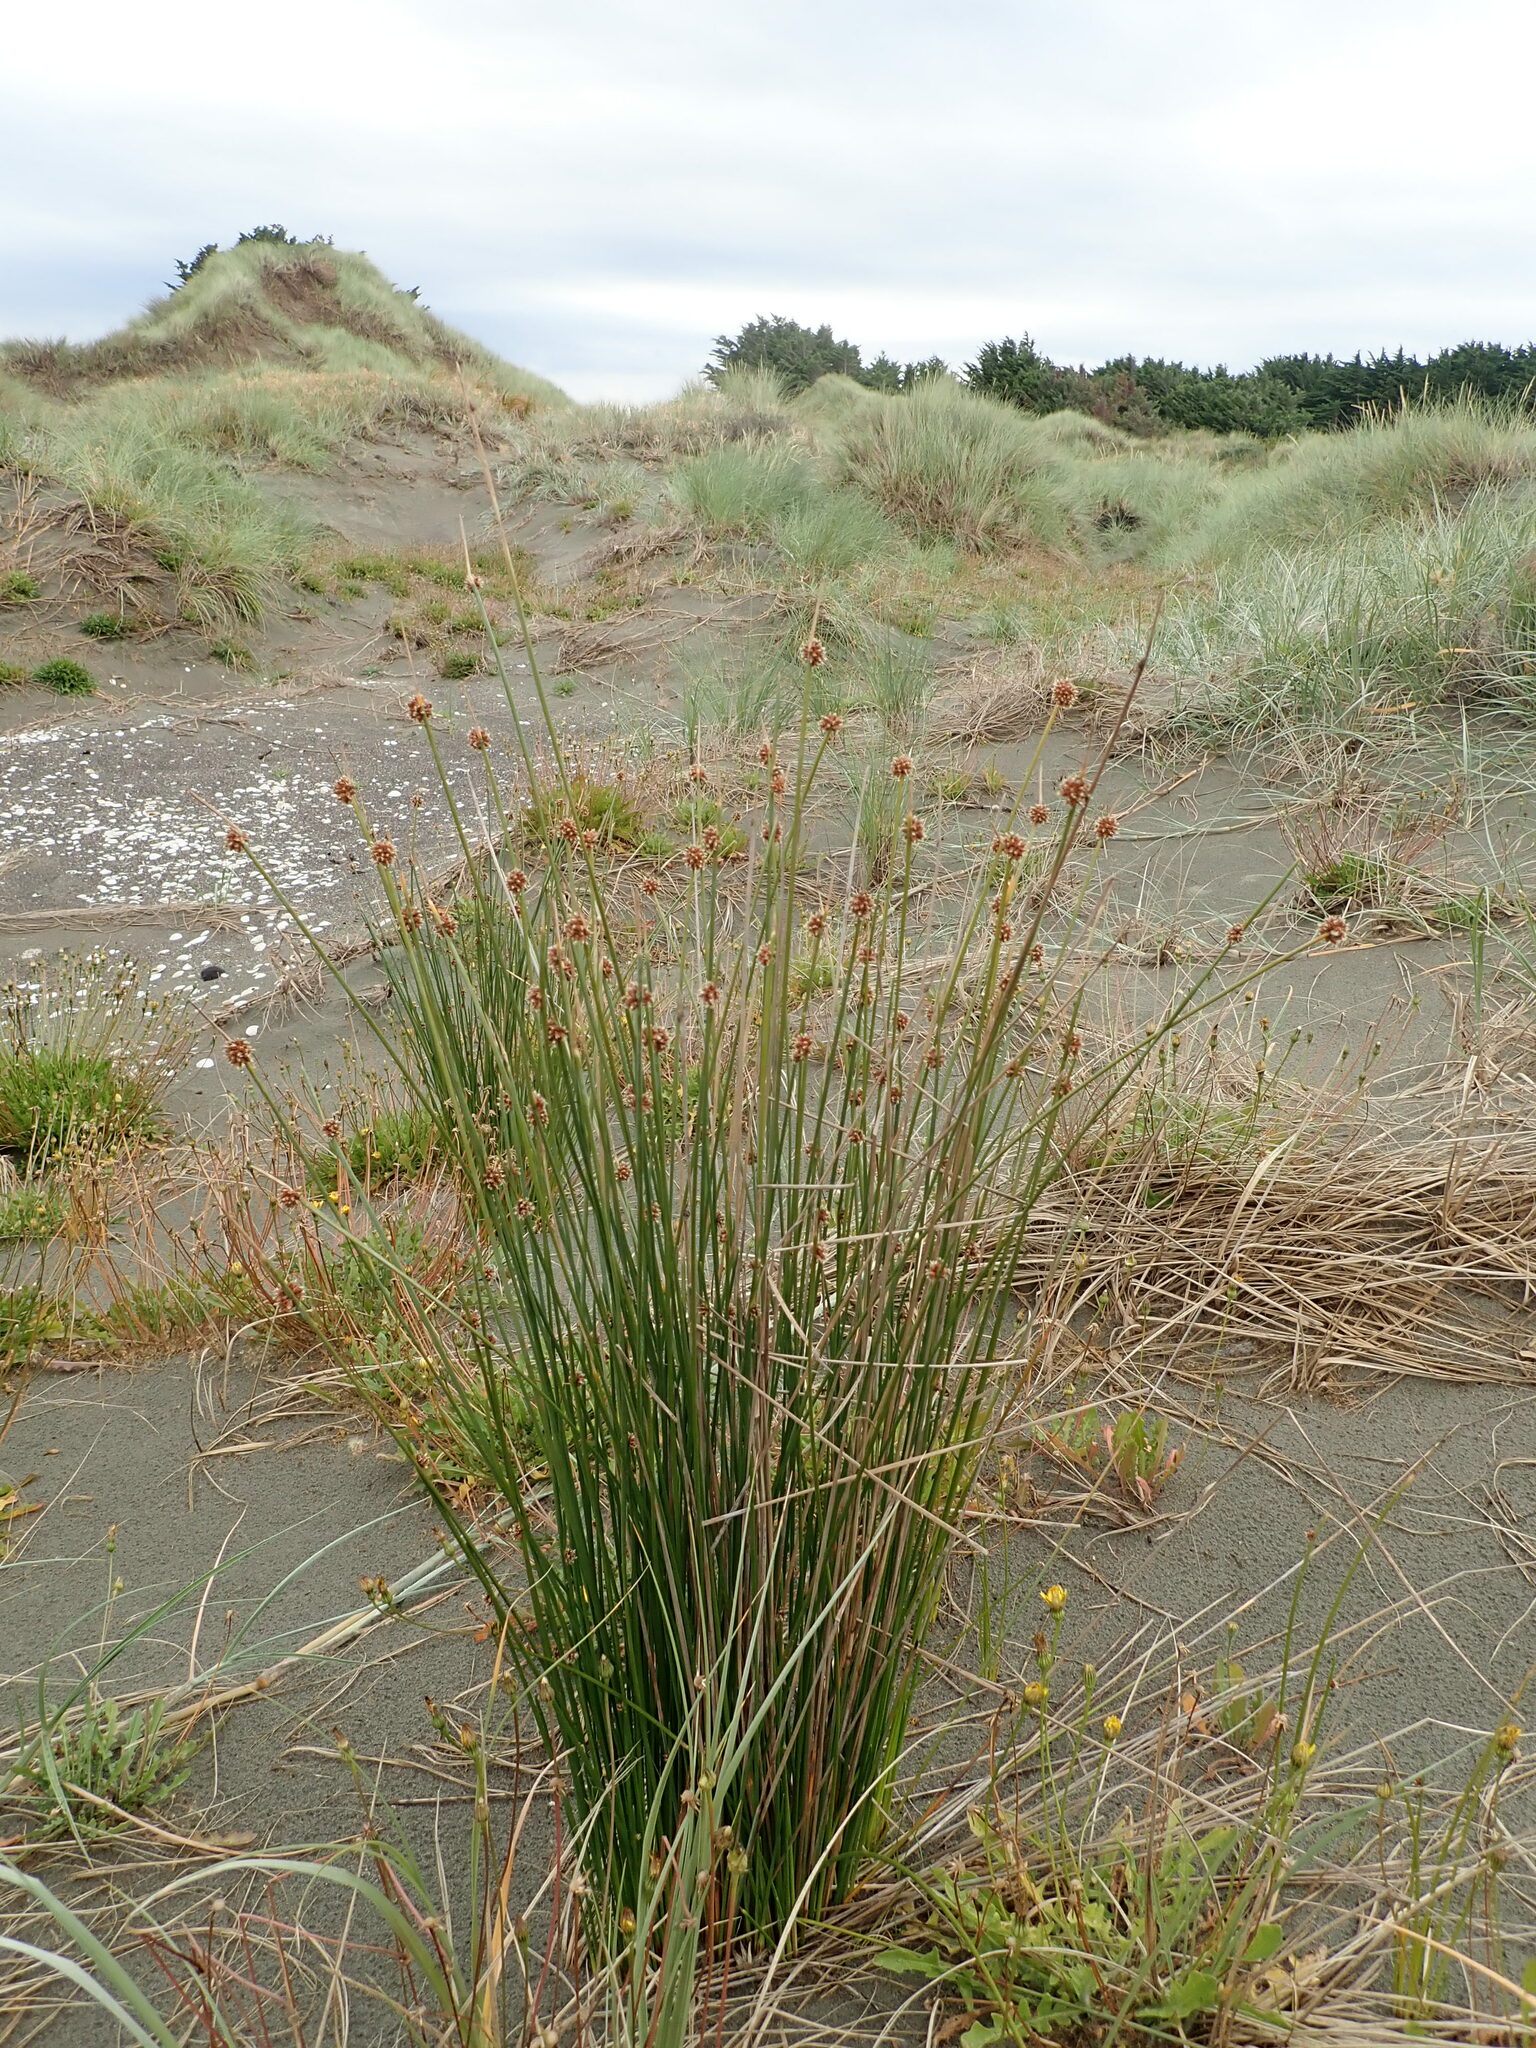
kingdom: Plantae
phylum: Tracheophyta
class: Liliopsida
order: Poales
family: Cyperaceae
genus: Ficinia
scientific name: Ficinia nodosa
